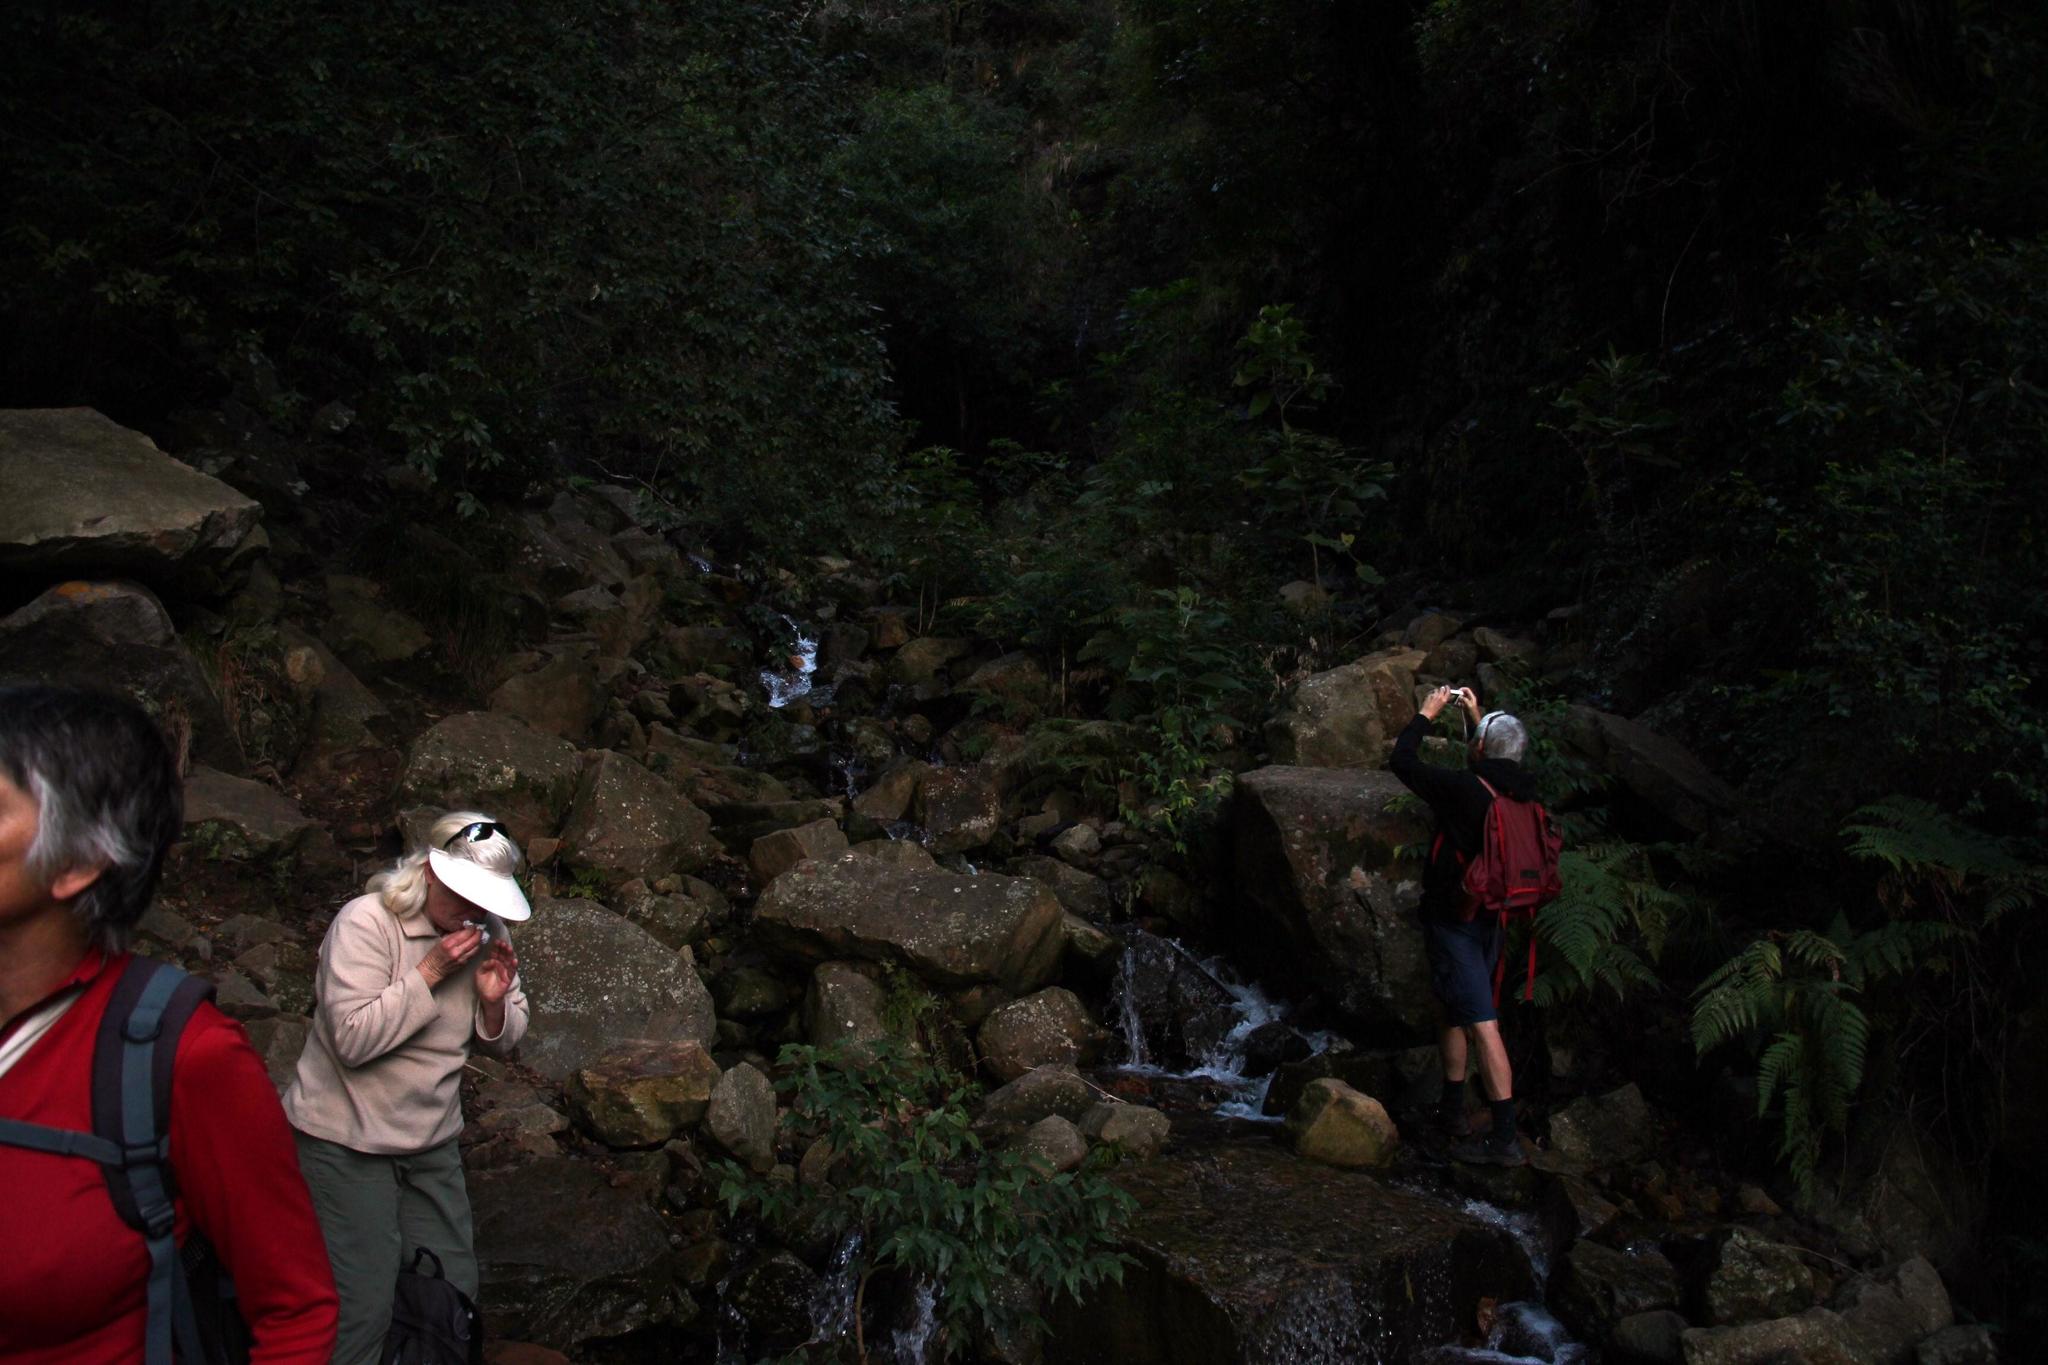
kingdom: Plantae
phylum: Tracheophyta
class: Magnoliopsida
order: Solanales
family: Solanaceae
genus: Solanum
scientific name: Solanum mauritianum
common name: Earleaf nightshade
